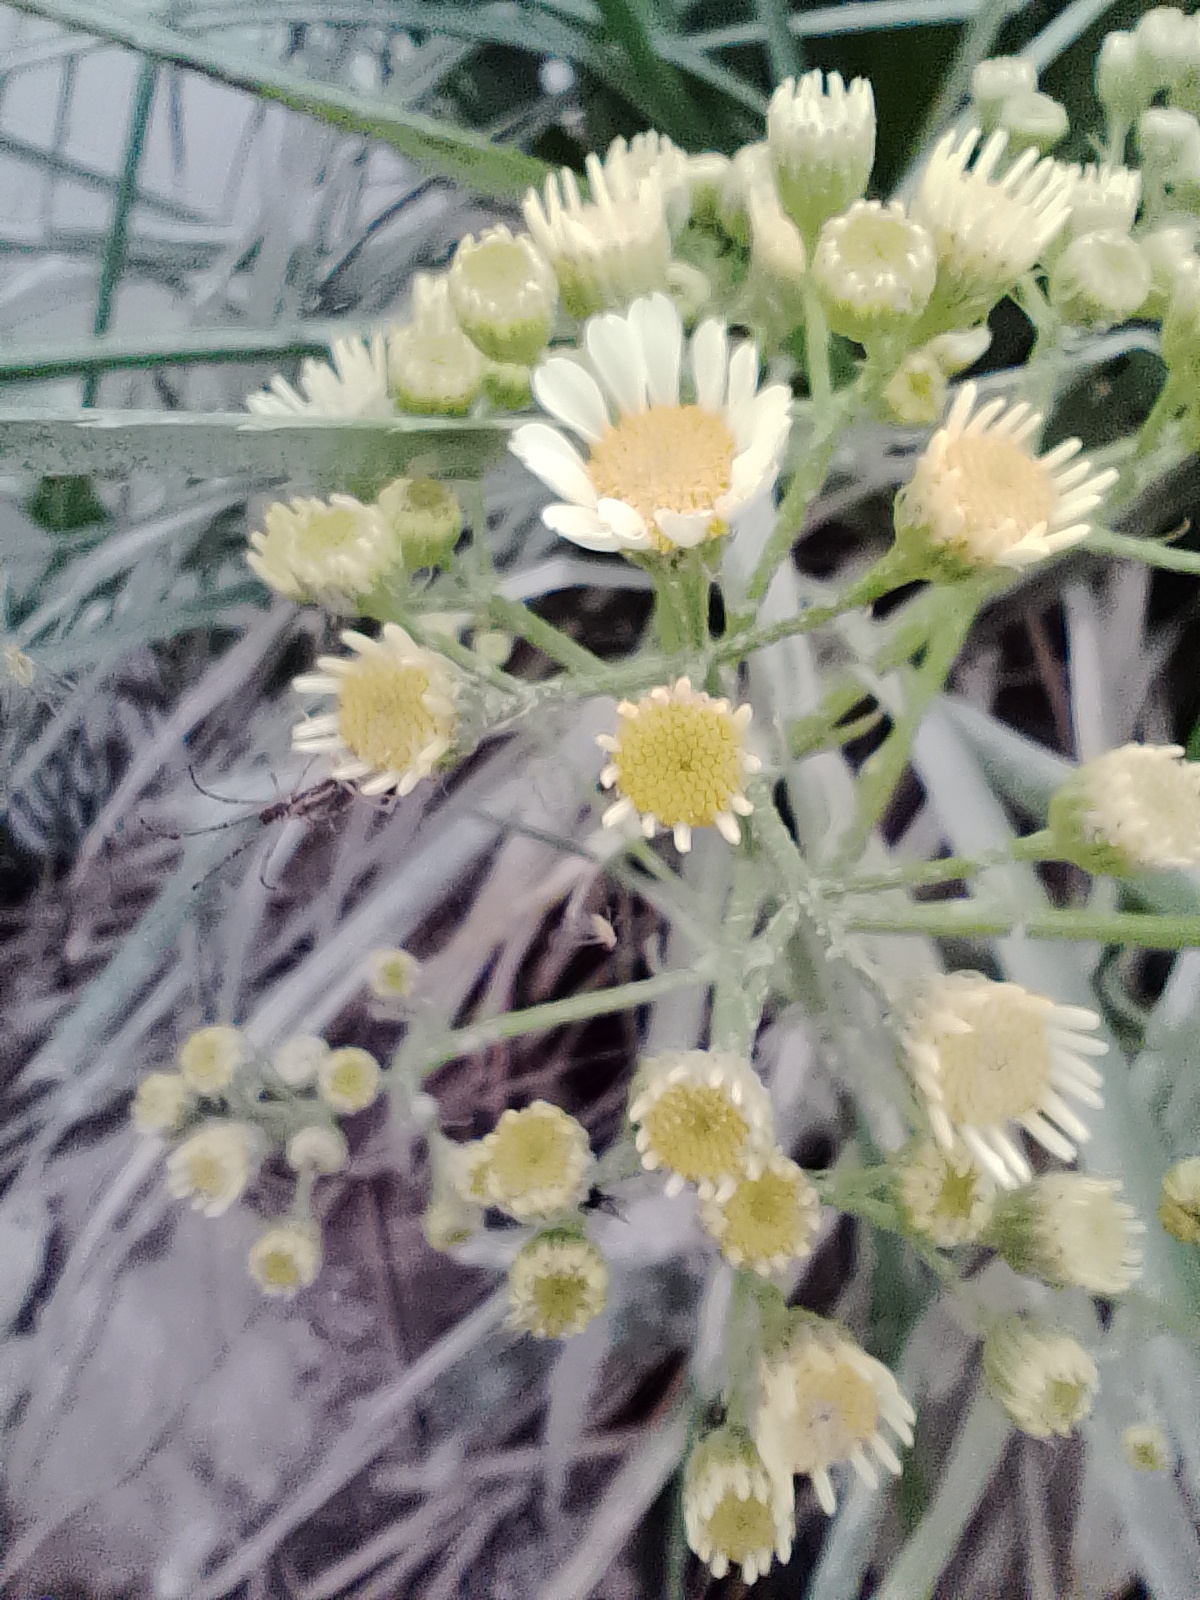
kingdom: Plantae
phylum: Tracheophyta
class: Magnoliopsida
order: Asterales
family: Asteraceae
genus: Senecio
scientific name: Senecio bonariensis
